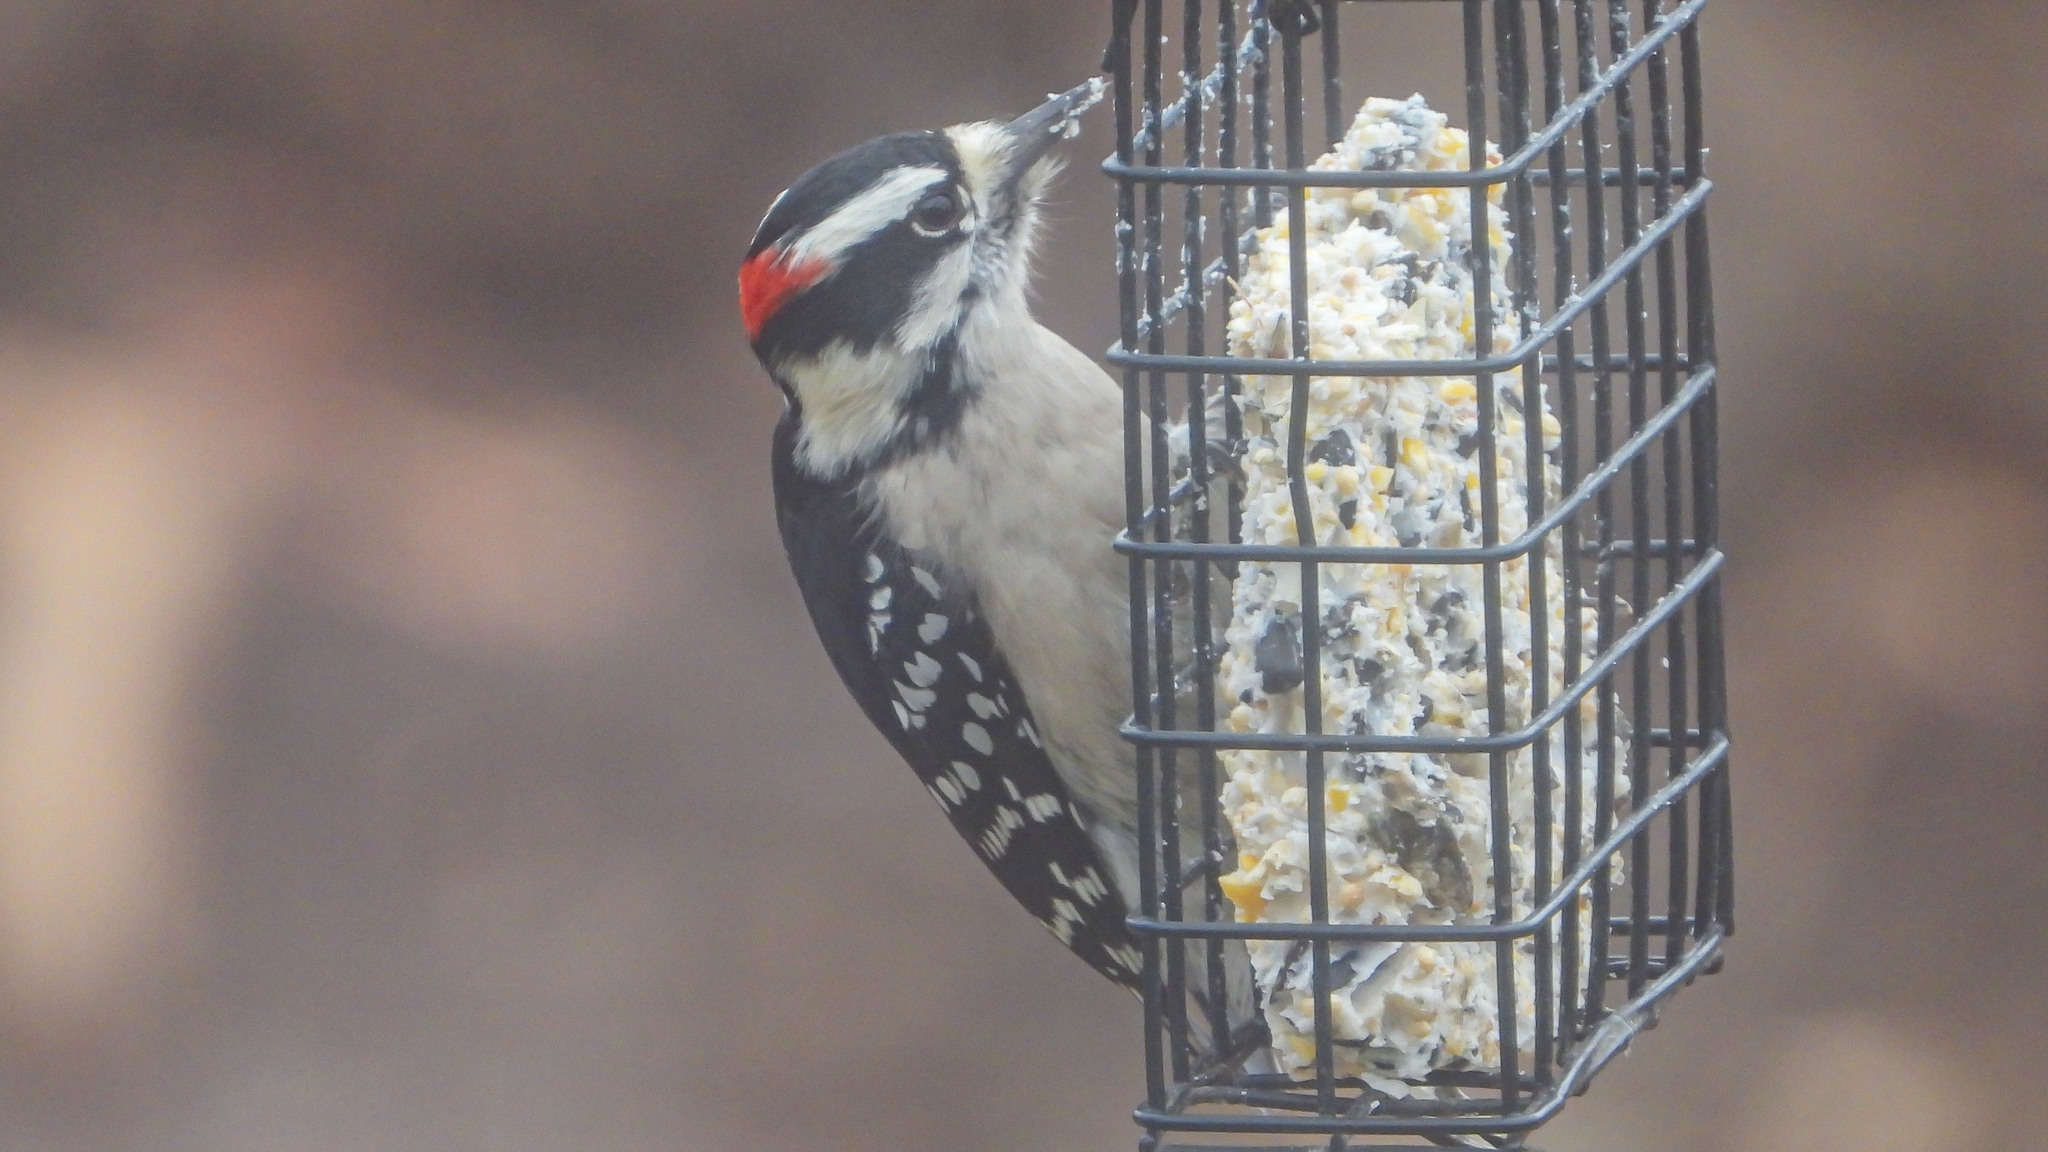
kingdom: Animalia
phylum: Chordata
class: Aves
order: Piciformes
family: Picidae
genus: Dryobates
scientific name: Dryobates pubescens
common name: Downy woodpecker
